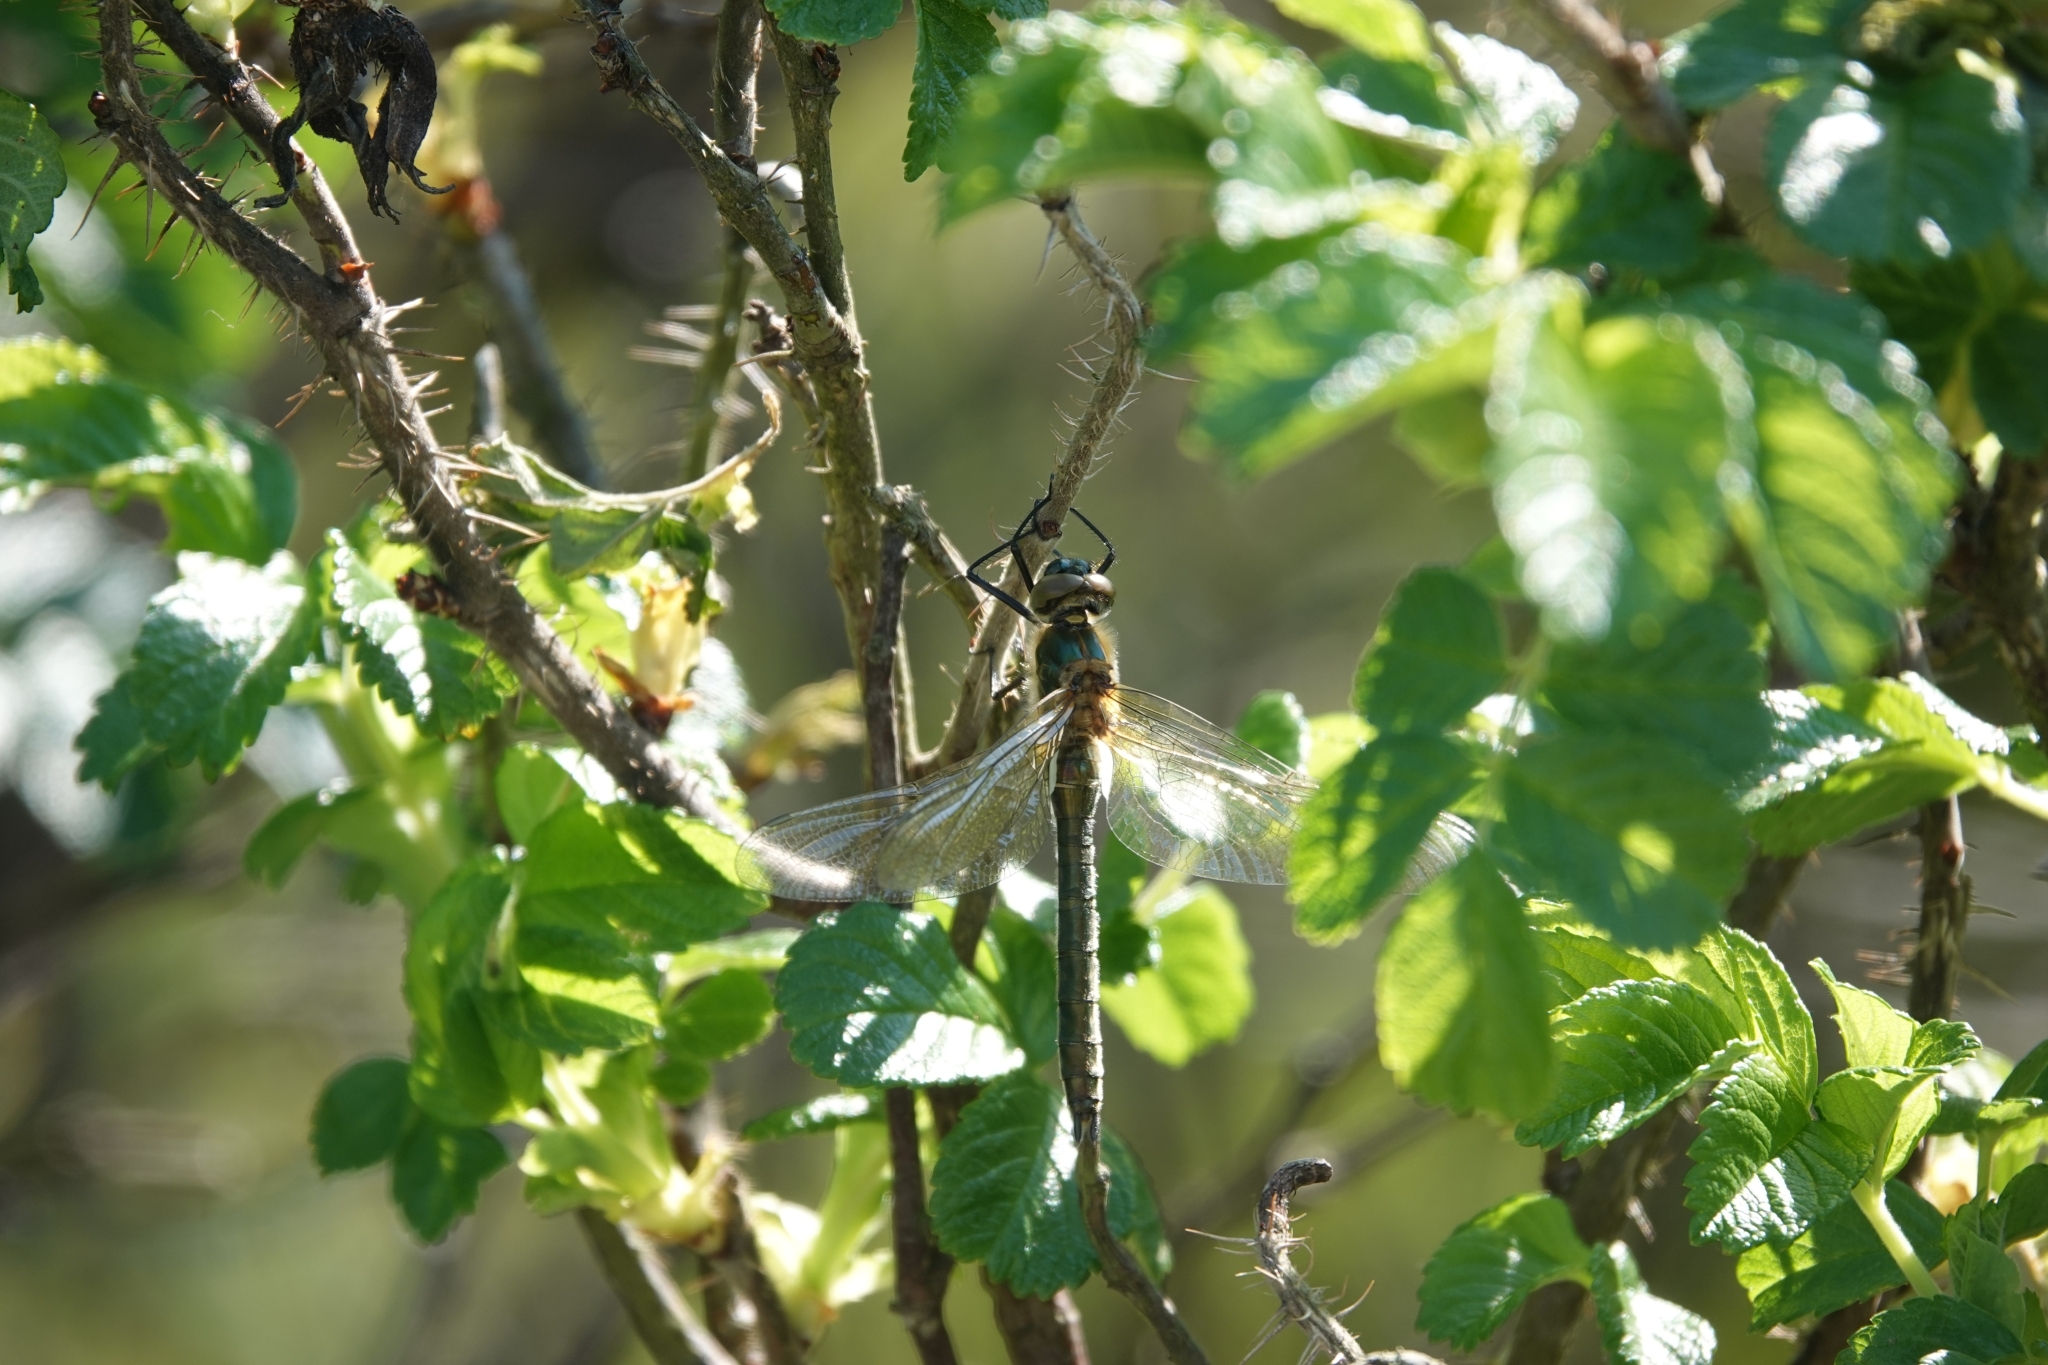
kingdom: Animalia
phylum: Arthropoda
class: Insecta
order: Odonata
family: Corduliidae
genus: Cordulia
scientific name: Cordulia aenea
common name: Downy emerald
